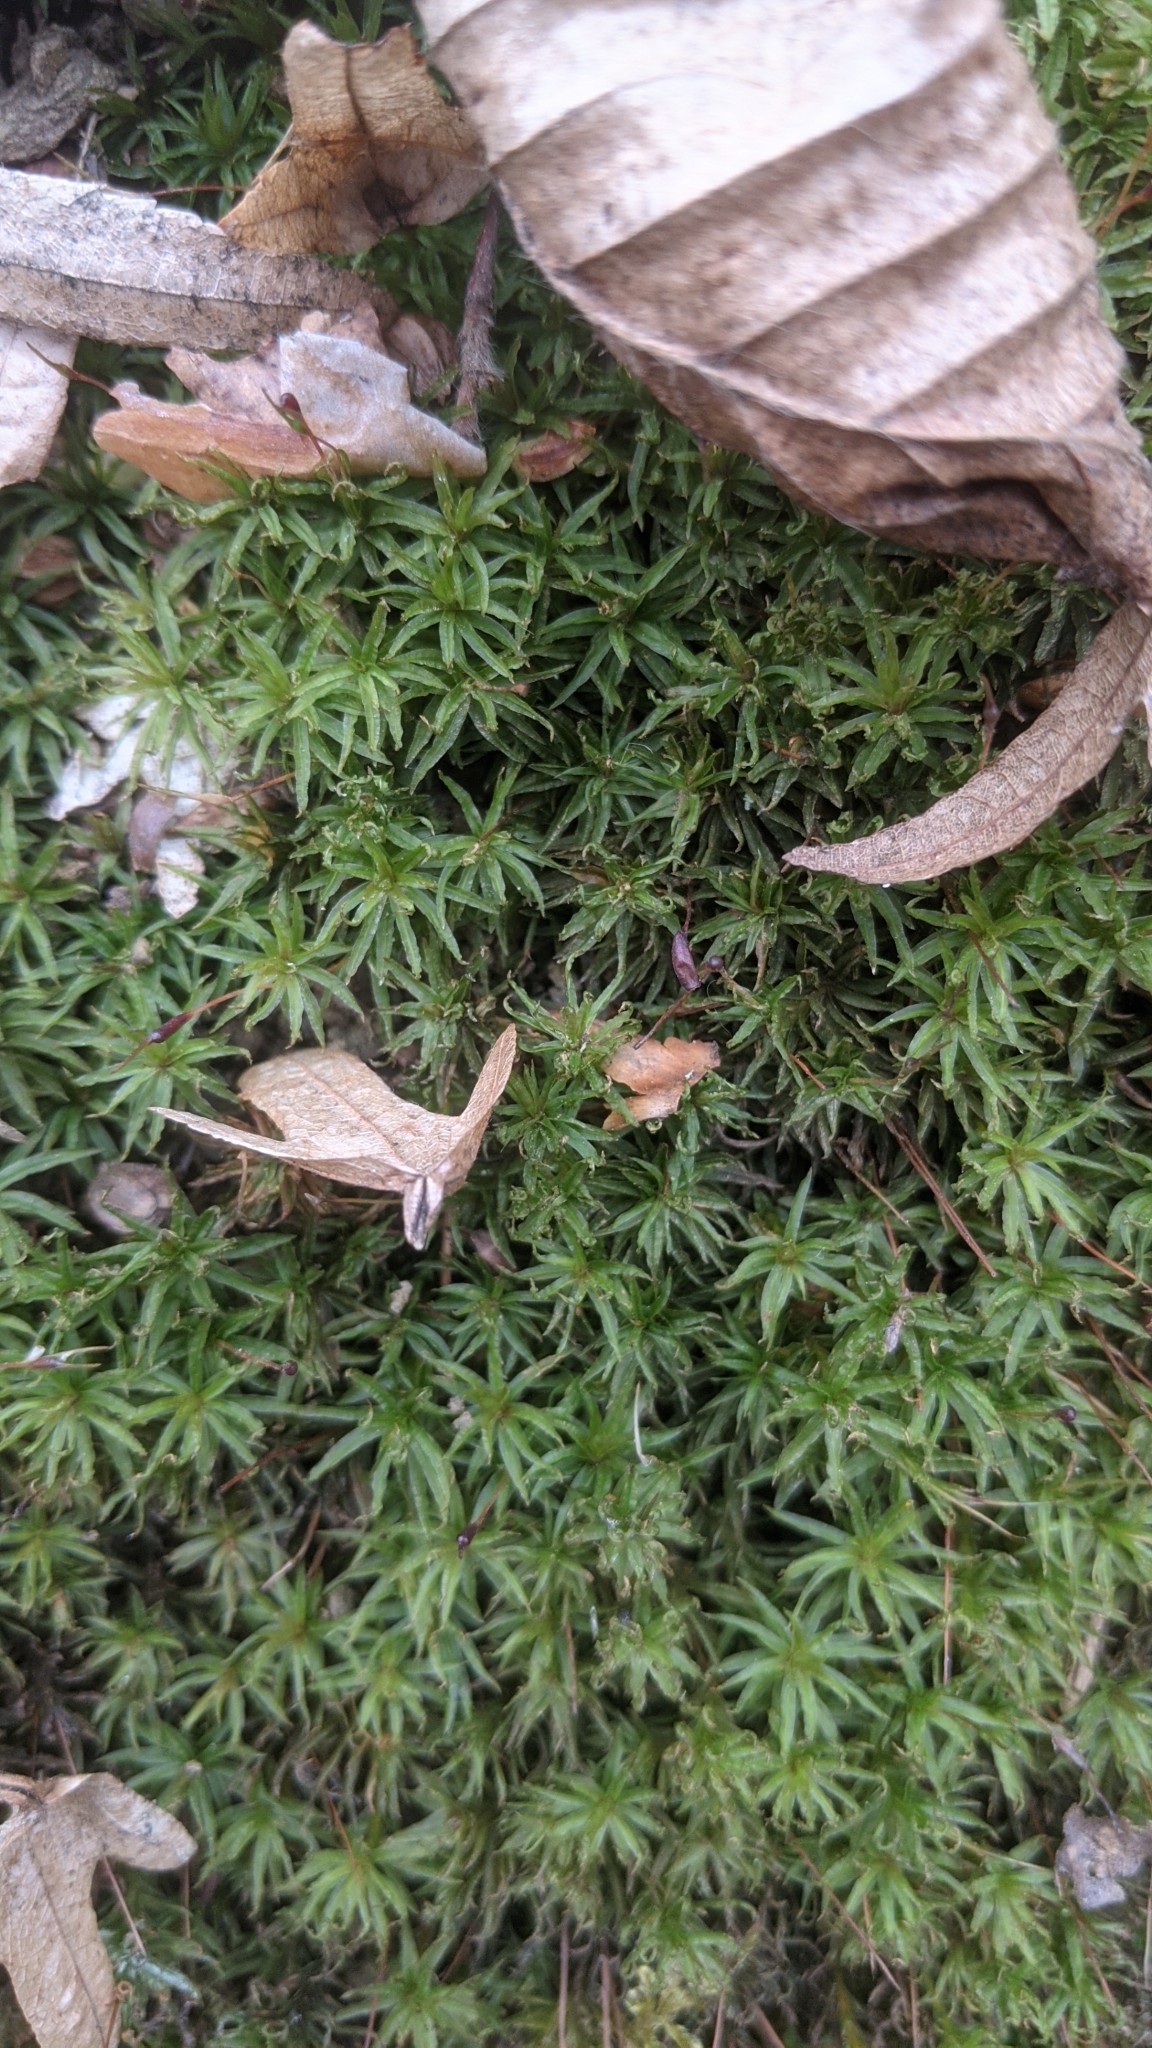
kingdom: Plantae
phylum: Bryophyta
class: Polytrichopsida
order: Polytrichales
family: Polytrichaceae
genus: Atrichum
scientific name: Atrichum undulatum
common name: Common smoothcap
